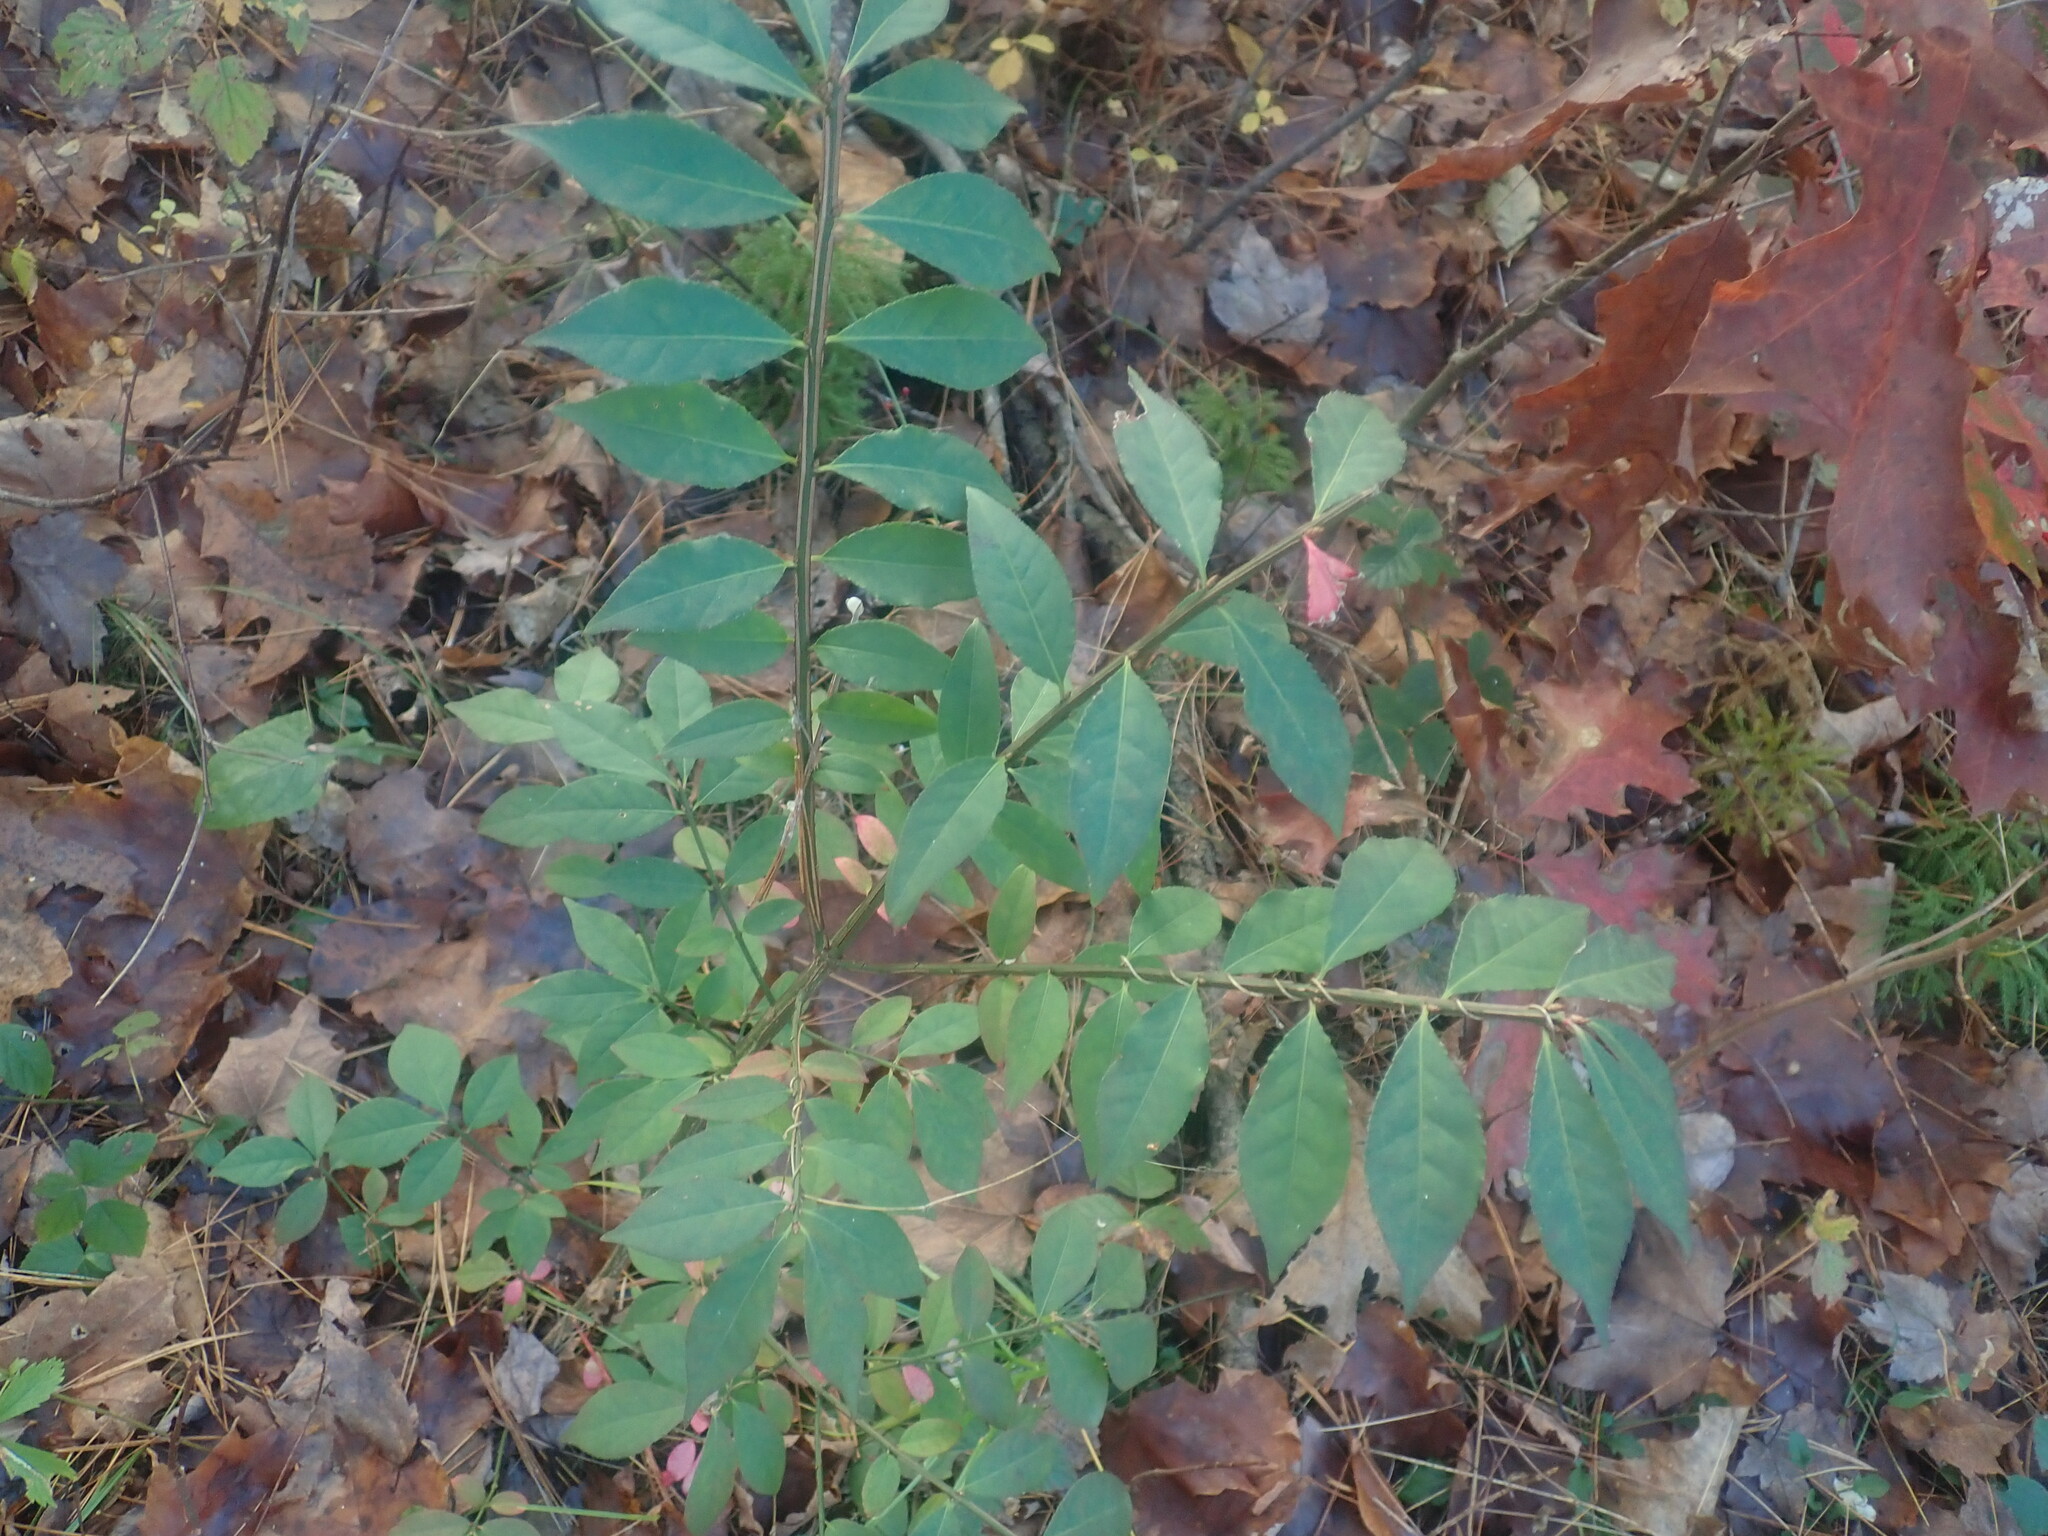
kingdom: Plantae
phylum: Tracheophyta
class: Magnoliopsida
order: Celastrales
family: Celastraceae
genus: Euonymus
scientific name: Euonymus alatus
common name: Winged euonymus
